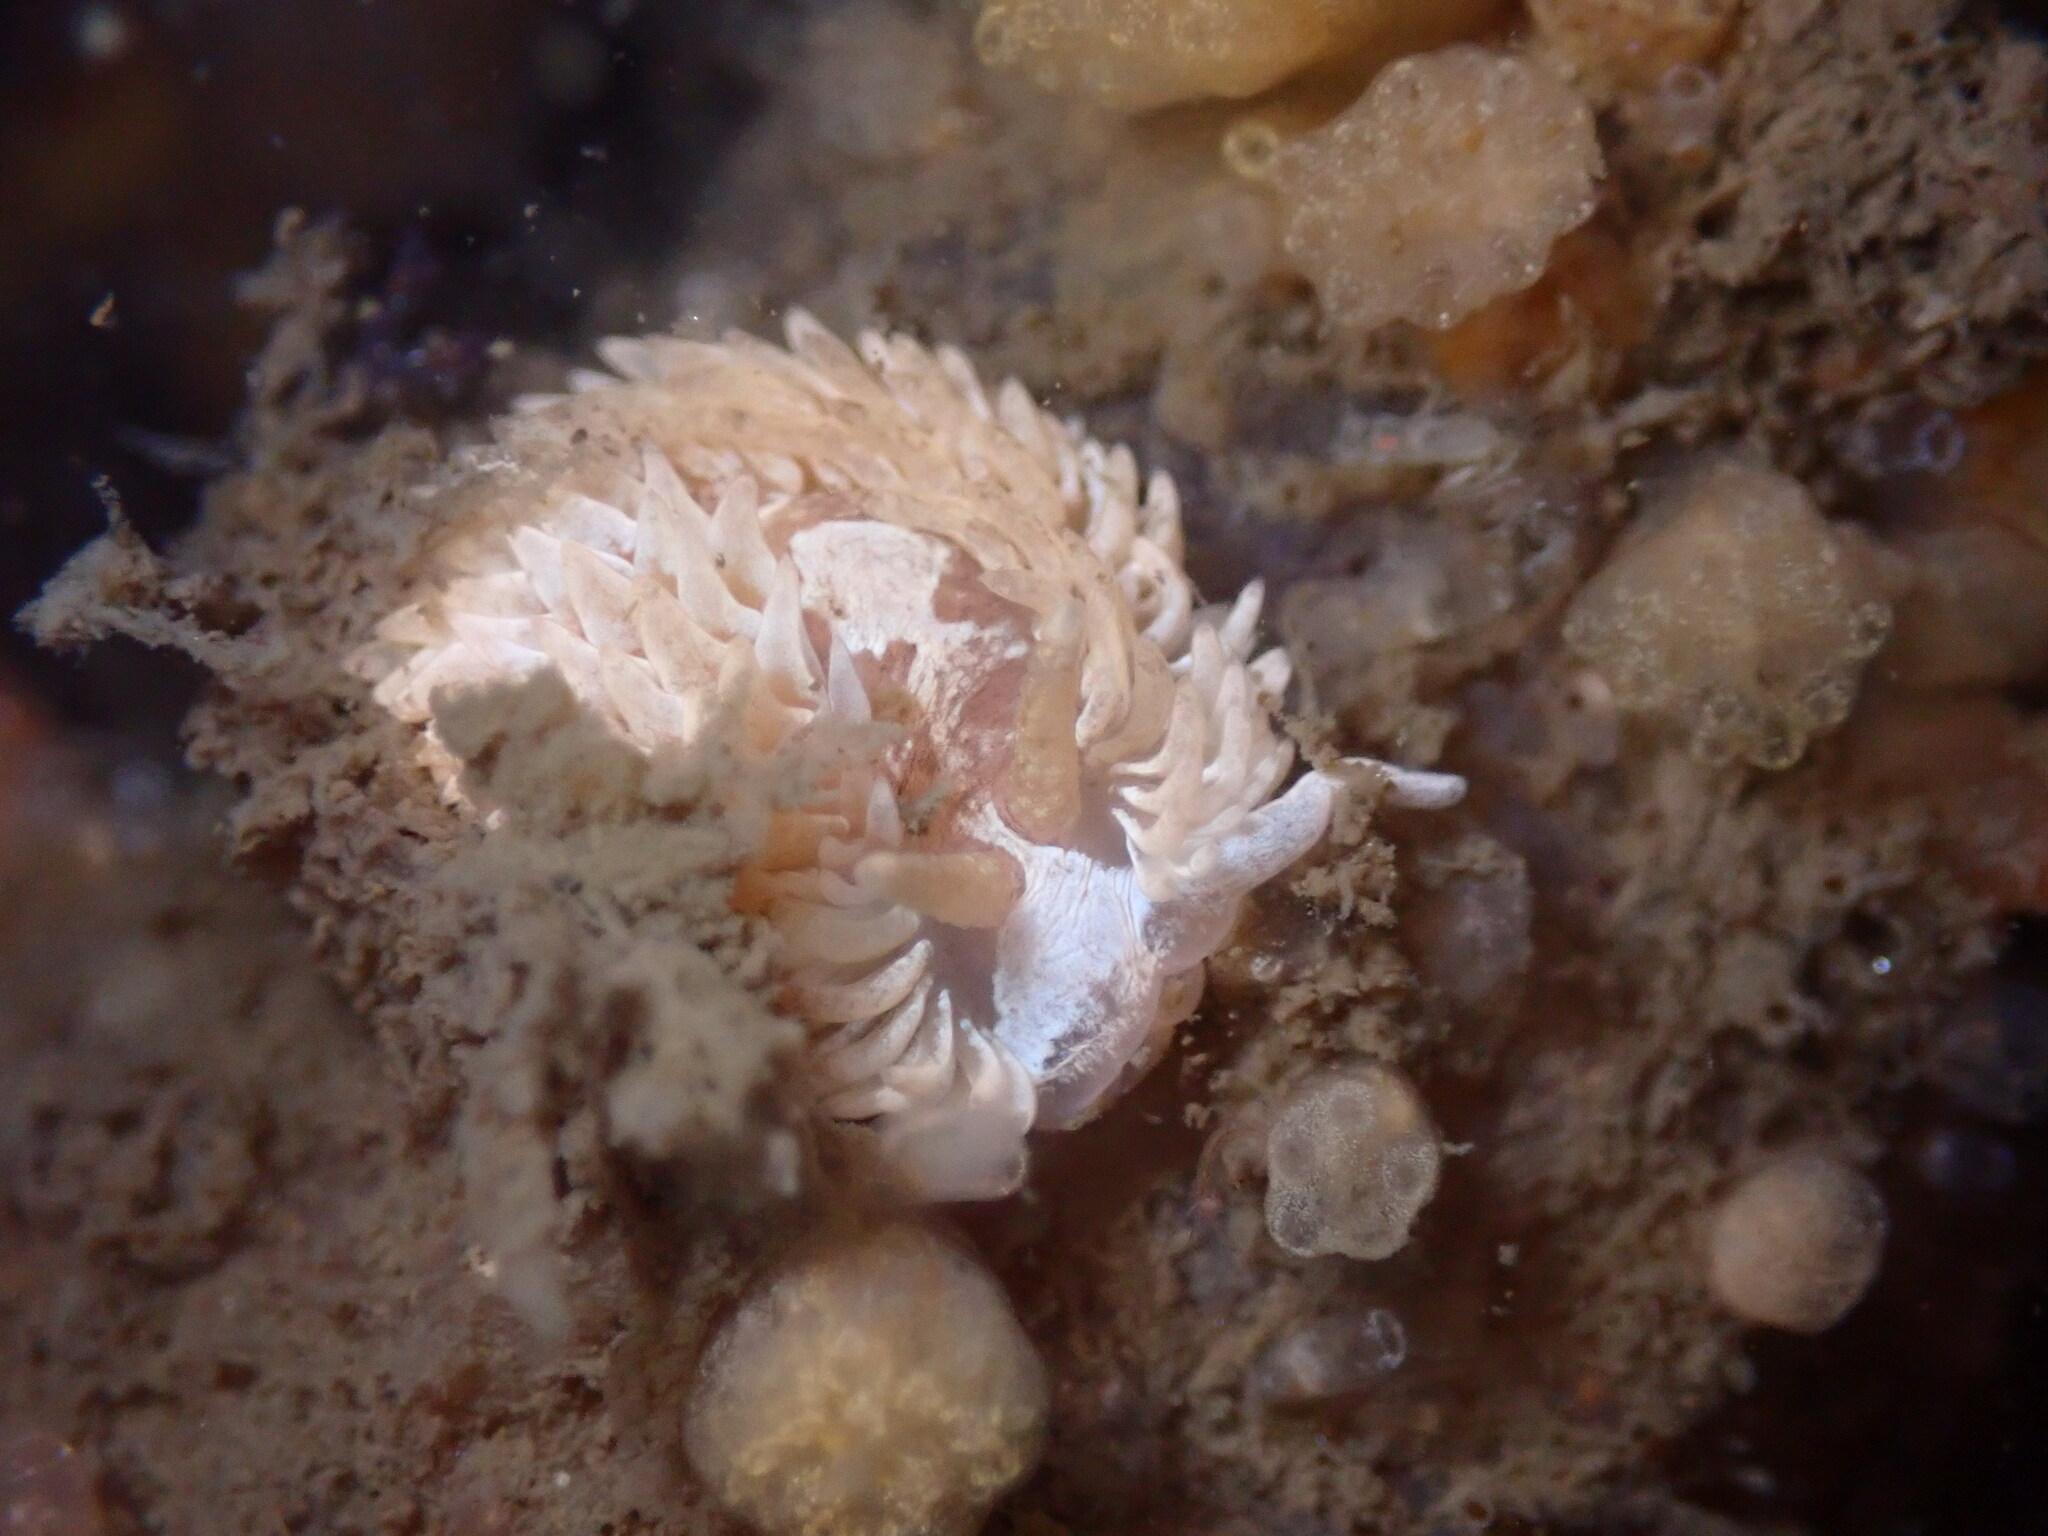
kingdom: Animalia
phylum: Mollusca
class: Gastropoda
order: Nudibranchia
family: Aeolidiidae
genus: Aeolidia
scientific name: Aeolidia loui
